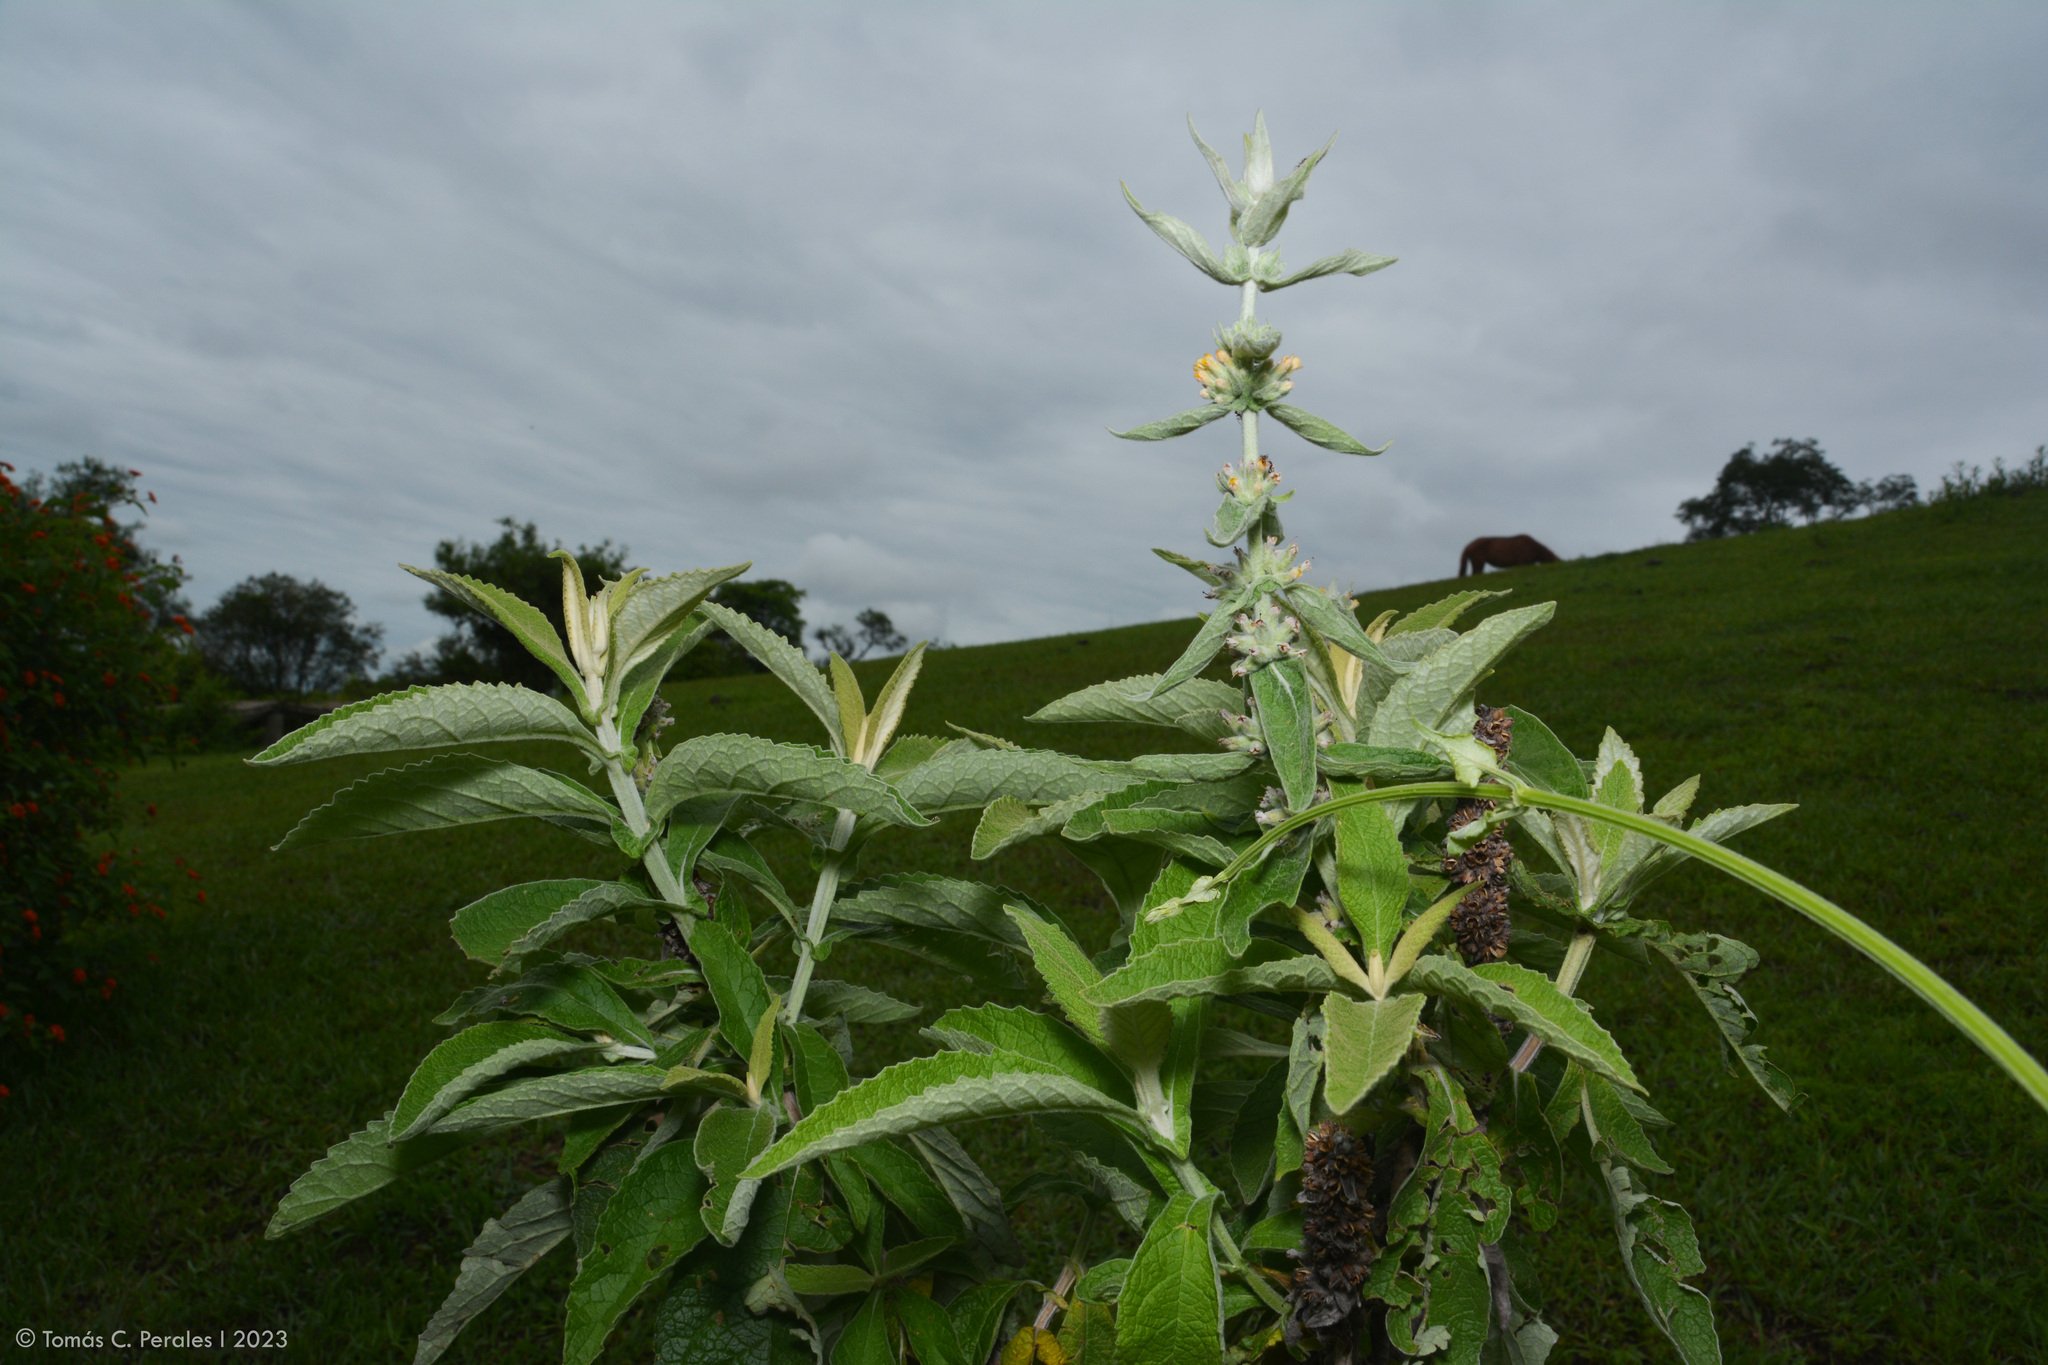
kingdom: Plantae
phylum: Tracheophyta
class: Magnoliopsida
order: Lamiales
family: Scrophulariaceae
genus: Buddleja
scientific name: Buddleja stachyoides
